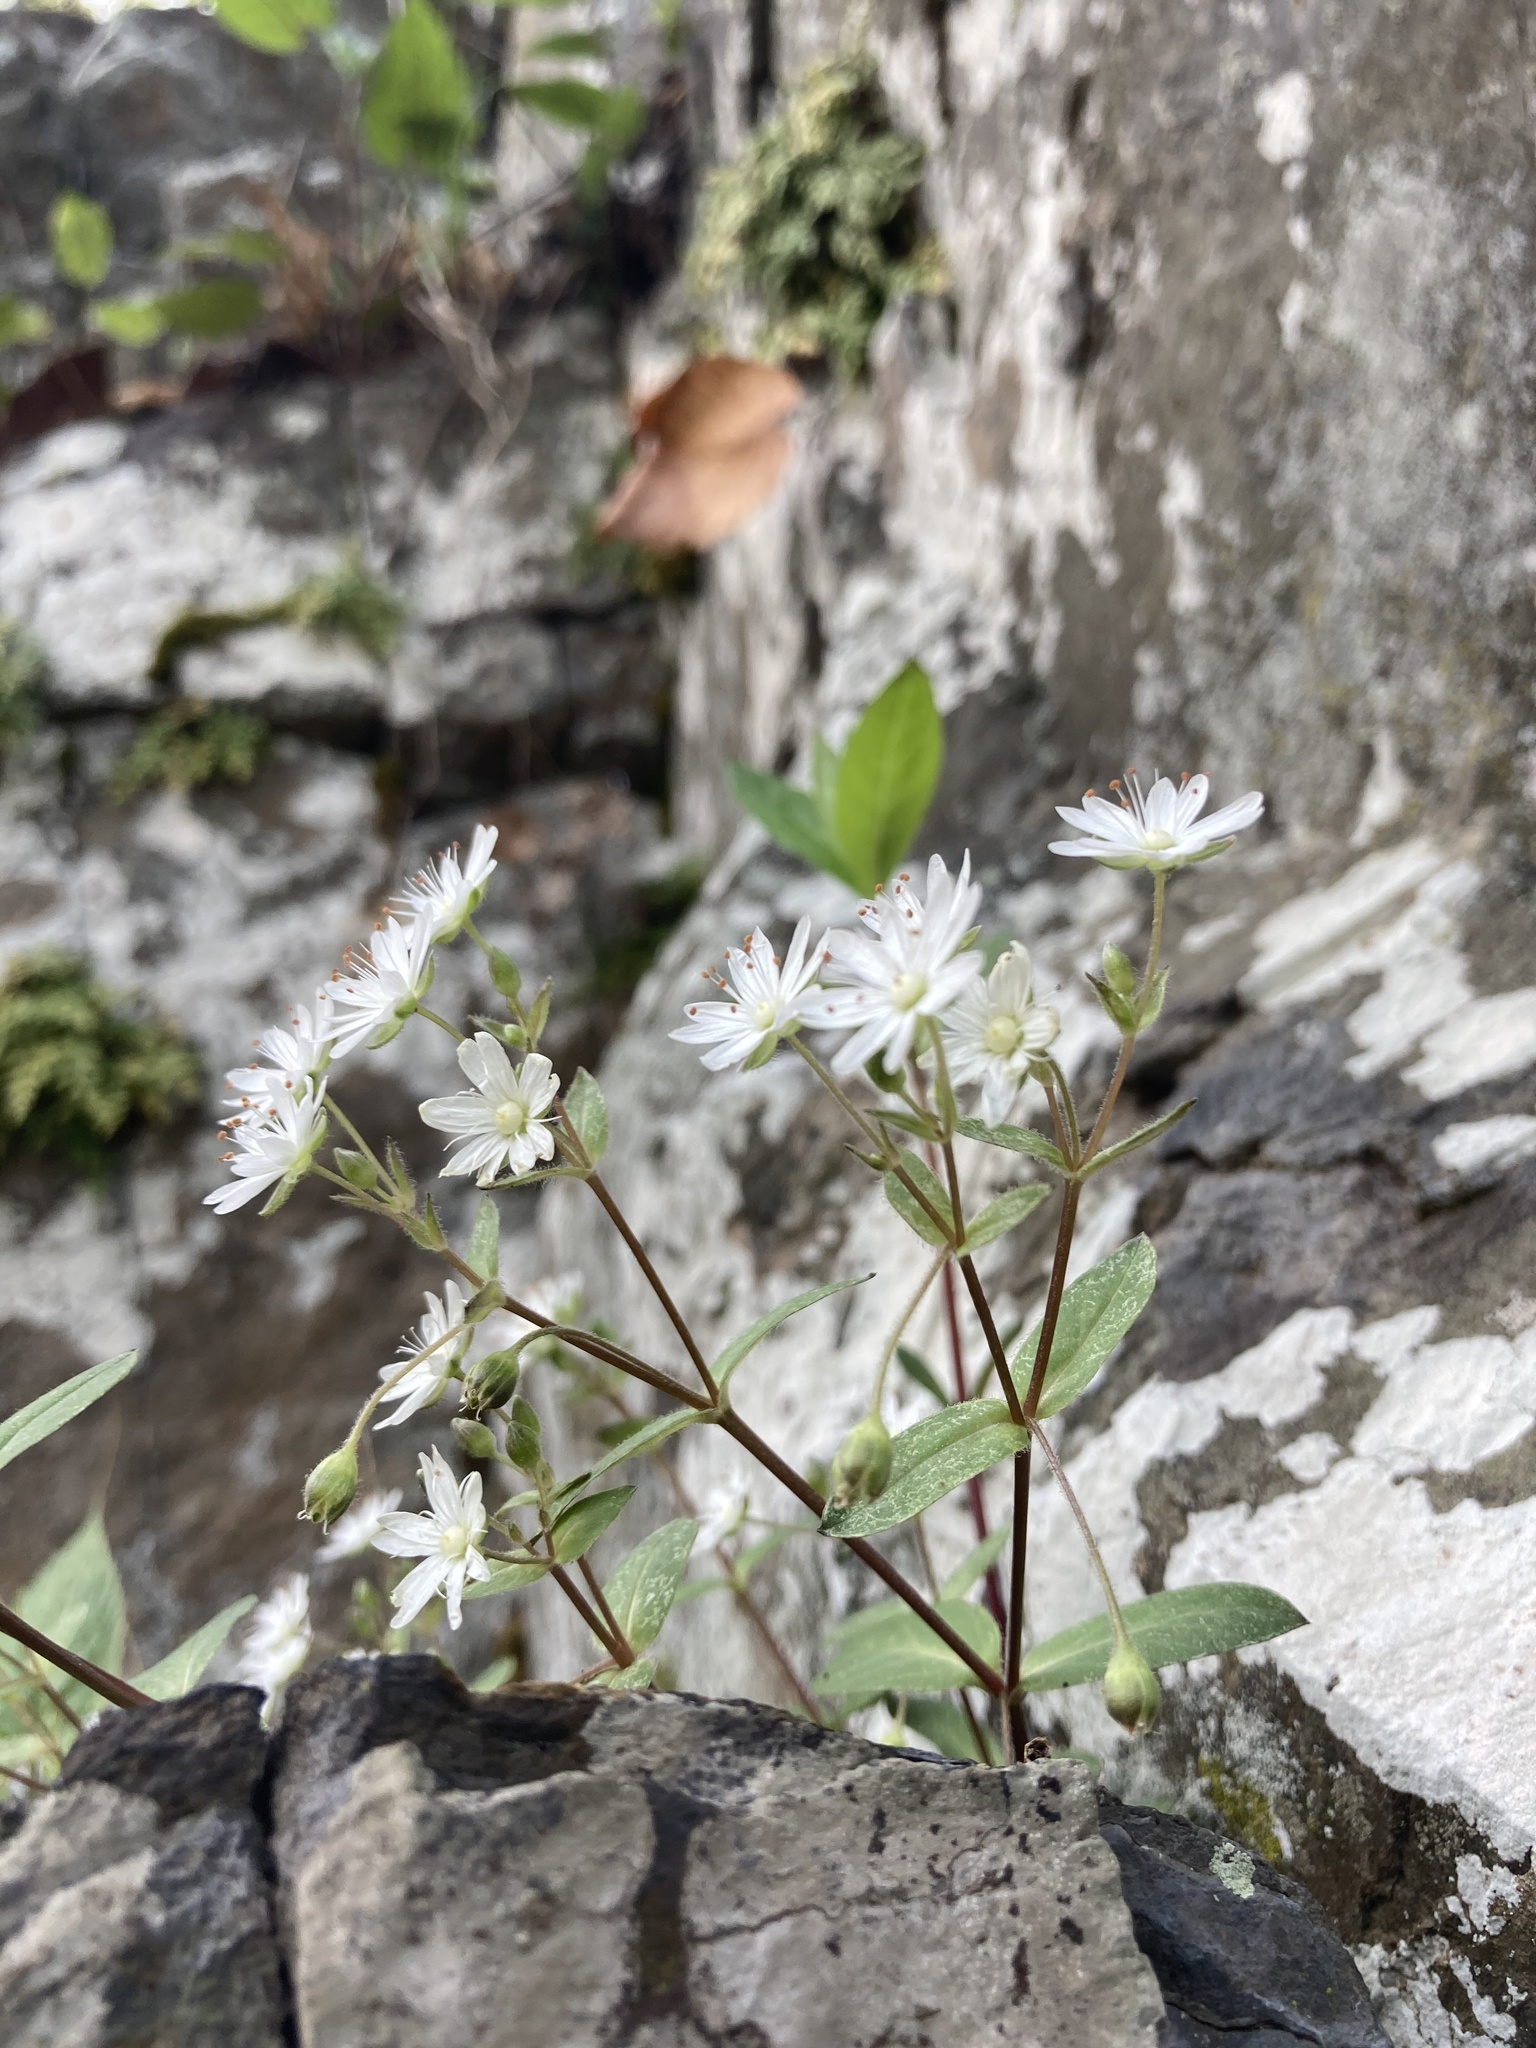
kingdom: Plantae
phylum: Tracheophyta
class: Magnoliopsida
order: Caryophyllales
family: Caryophyllaceae
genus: Stellaria
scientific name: Stellaria pubera
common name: Star chickweed
